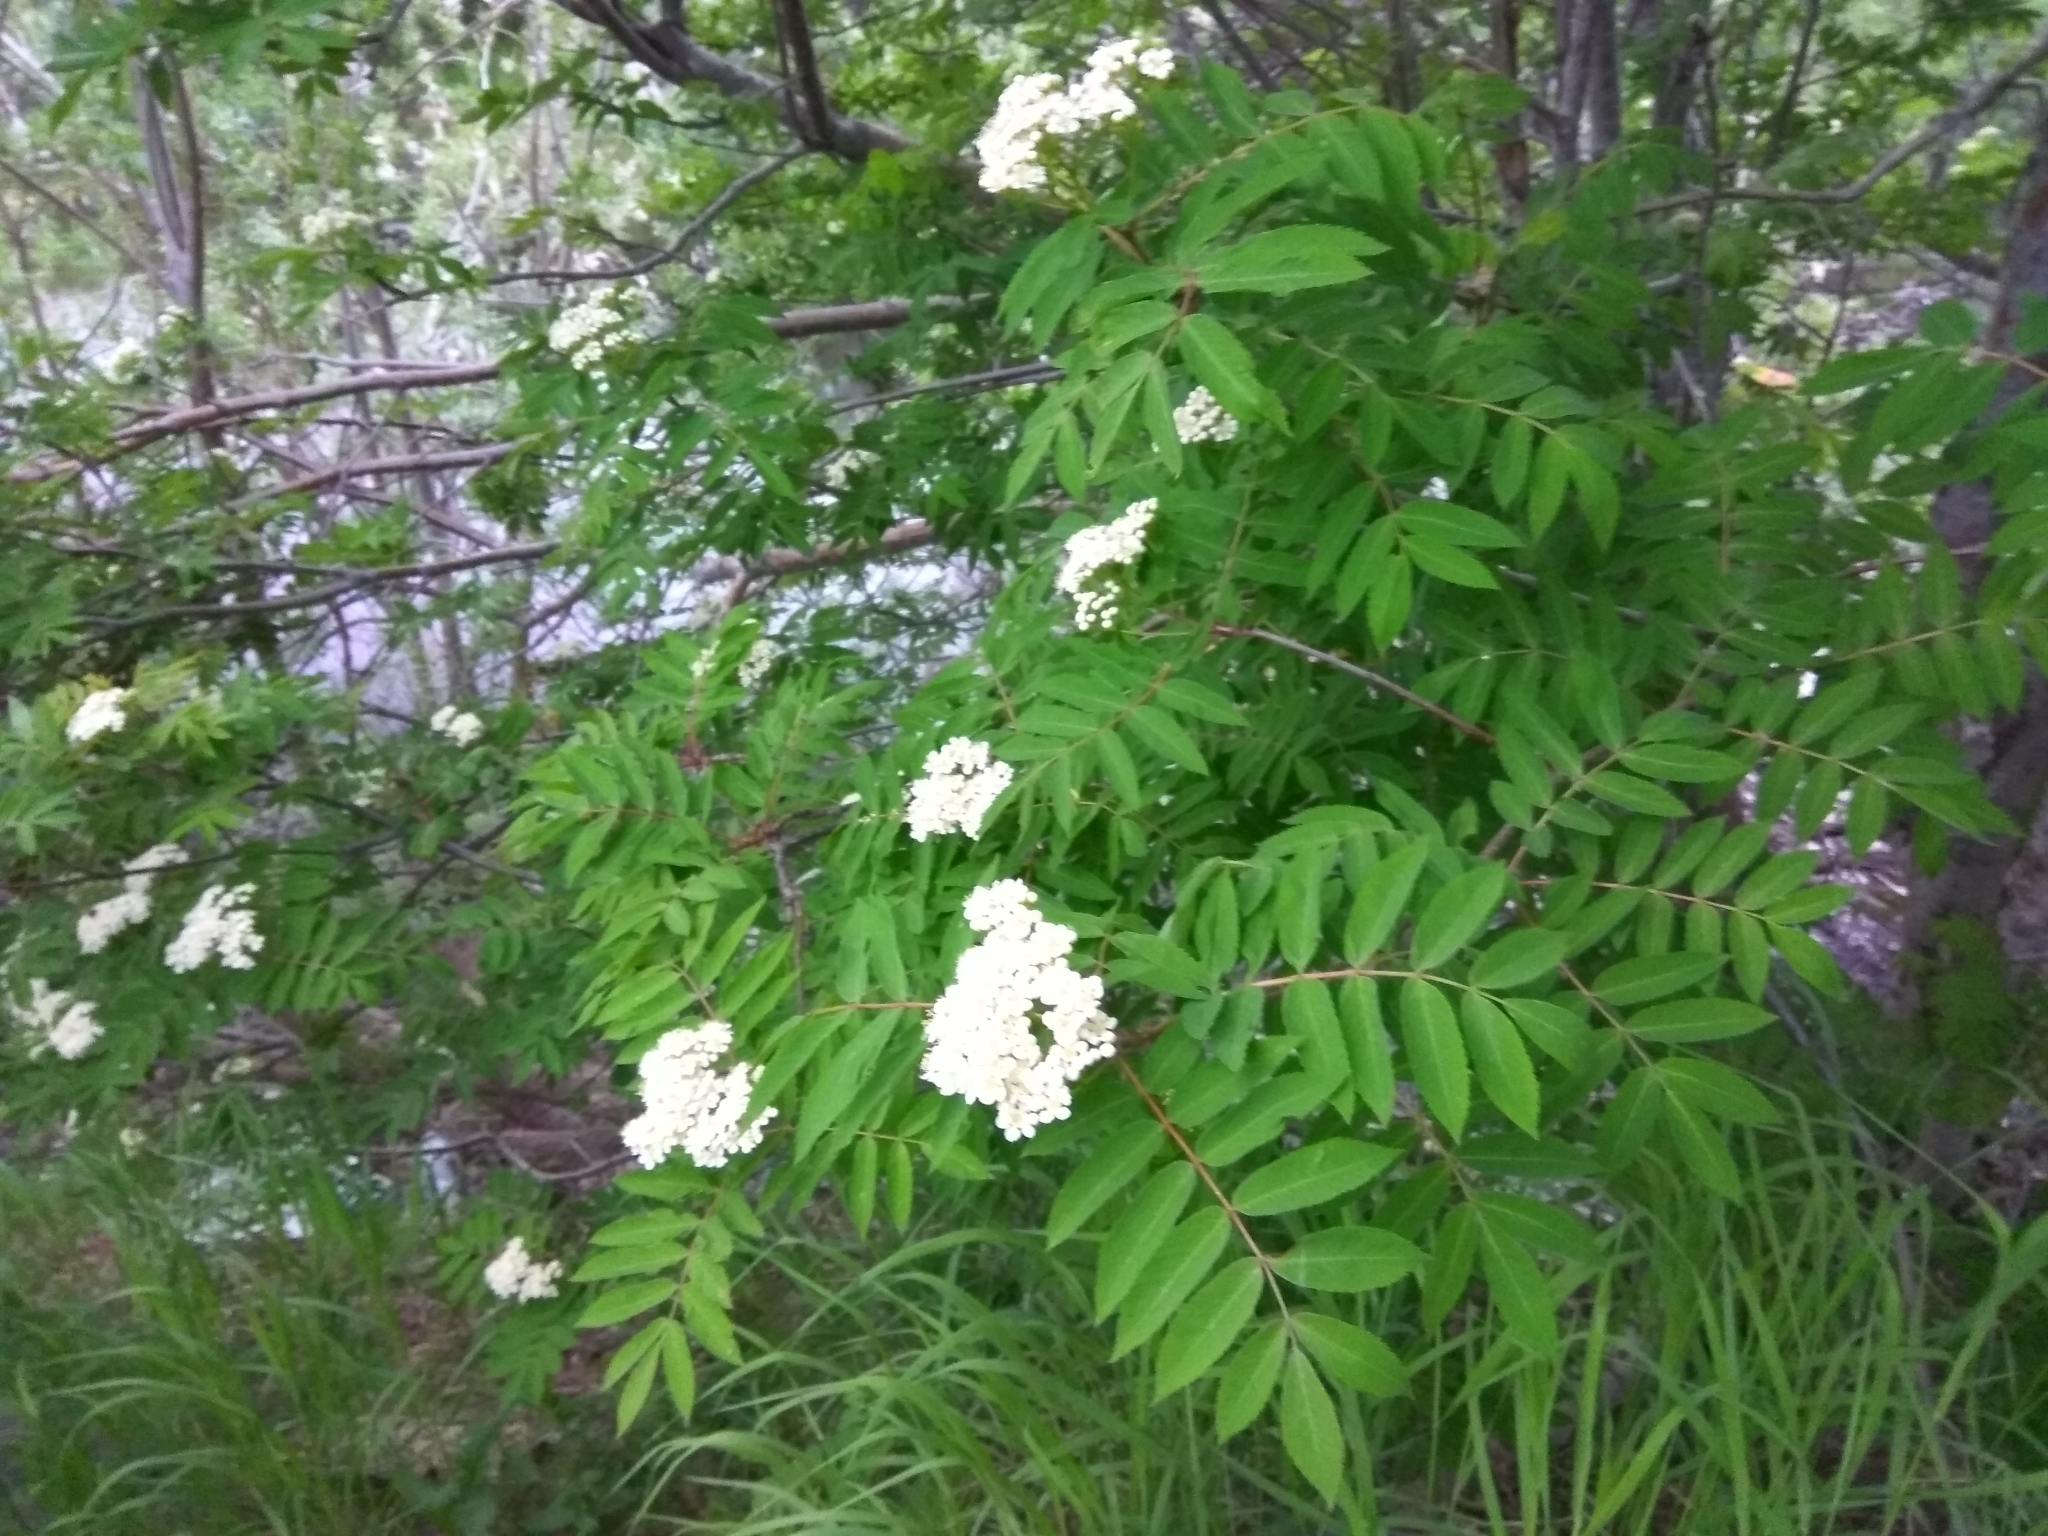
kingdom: Plantae
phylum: Tracheophyta
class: Magnoliopsida
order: Rosales
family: Rosaceae
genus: Sorbus
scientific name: Sorbus aucuparia
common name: Rowan
